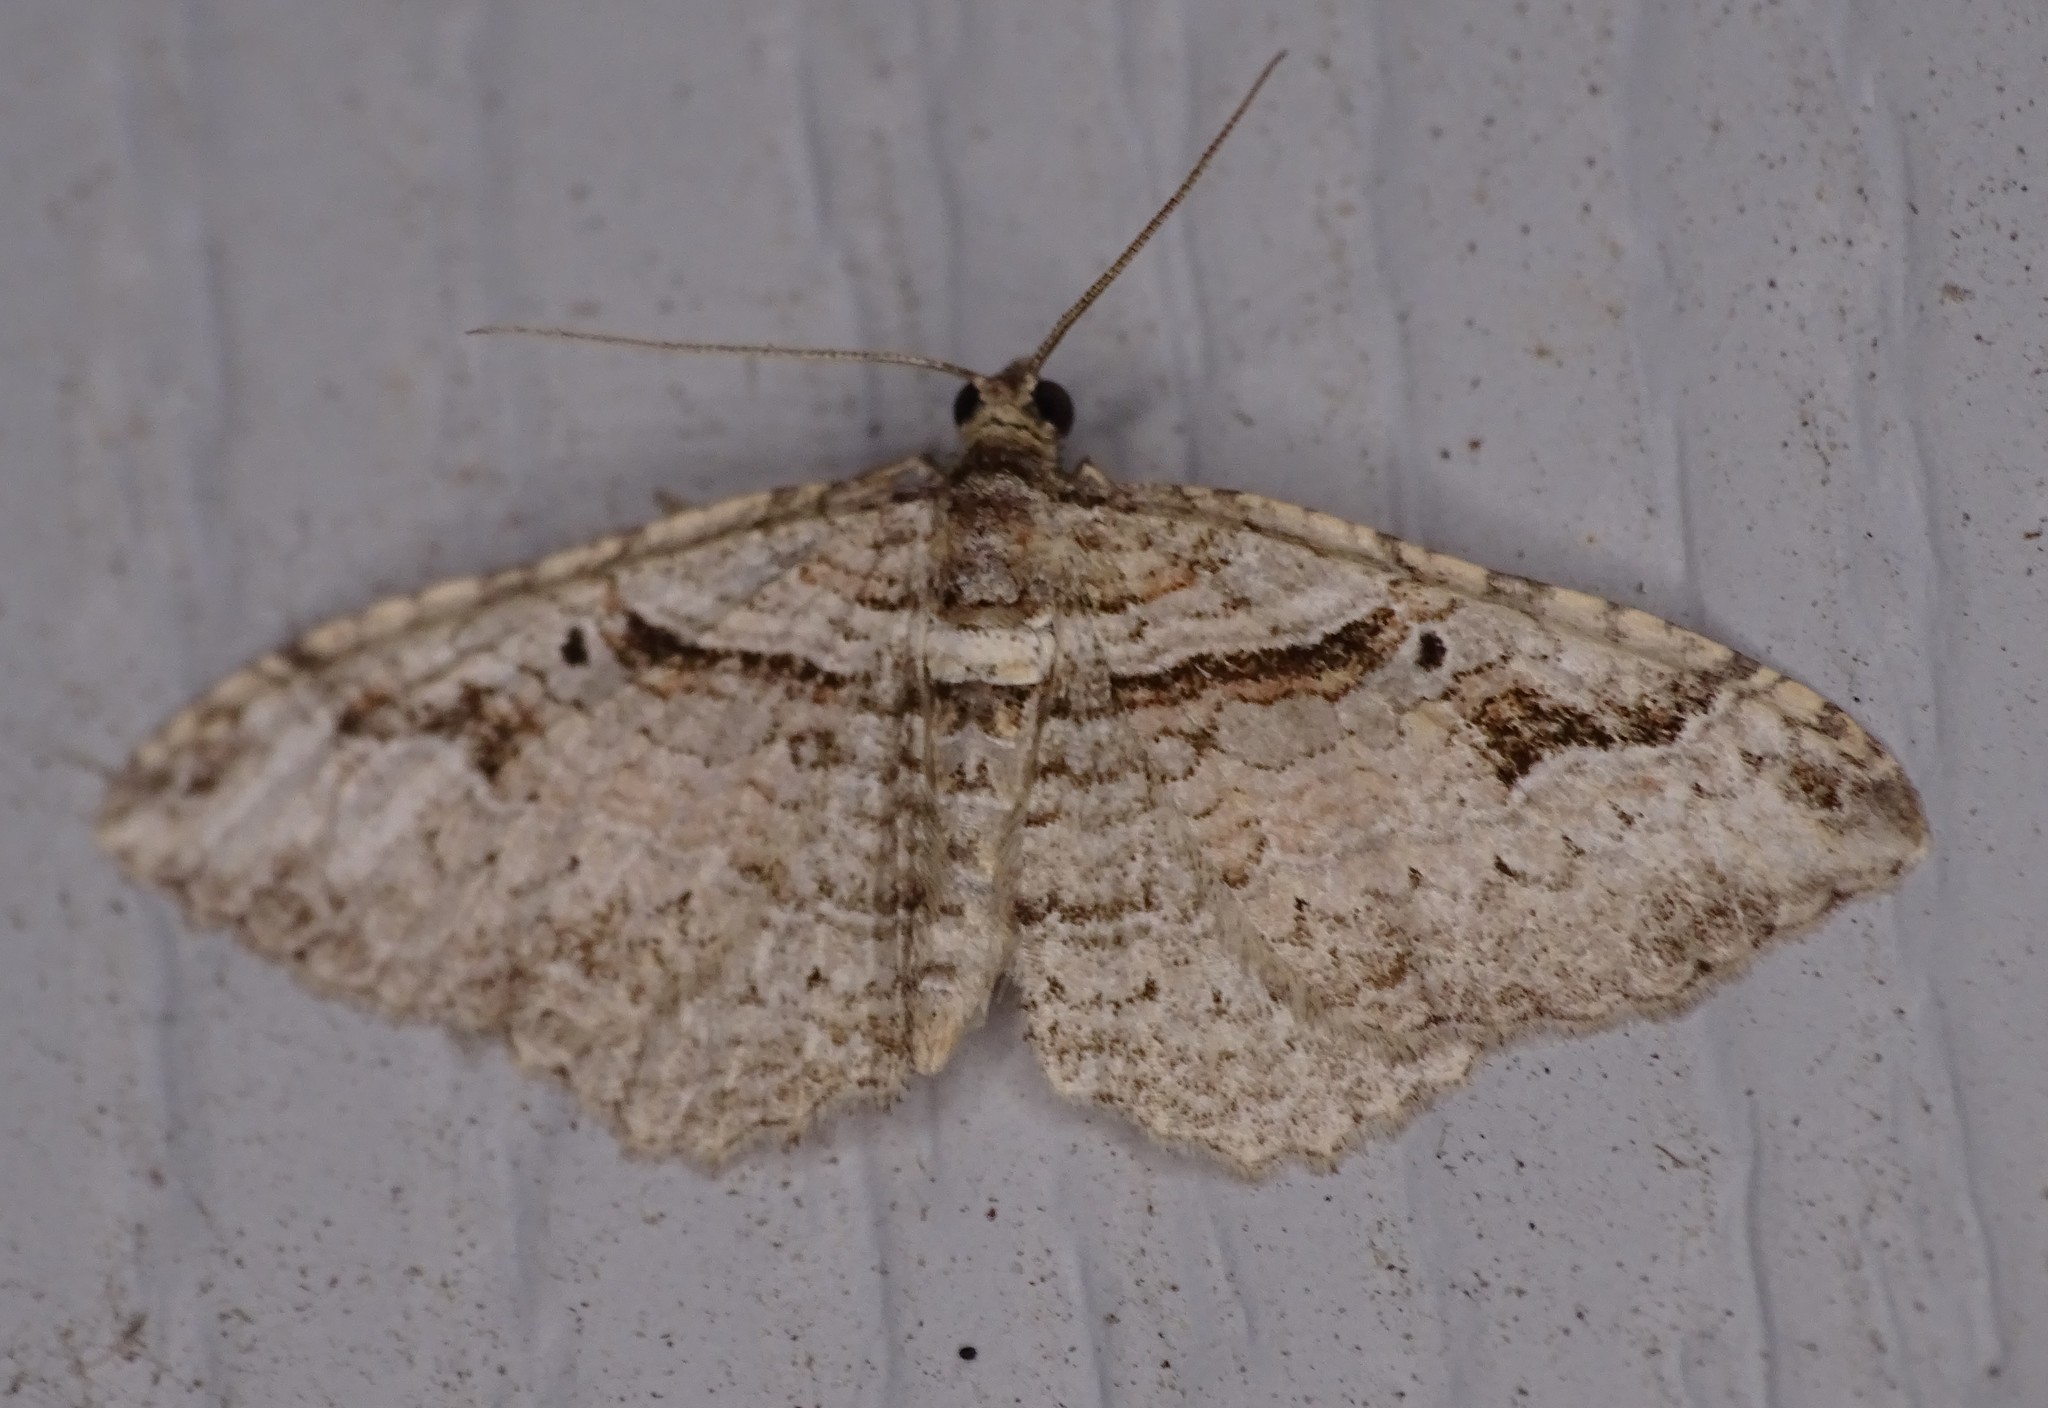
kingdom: Animalia
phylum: Arthropoda
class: Insecta
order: Lepidoptera
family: Geometridae
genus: Costaconvexa
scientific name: Costaconvexa centrostrigaria
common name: Bent-line carpet
